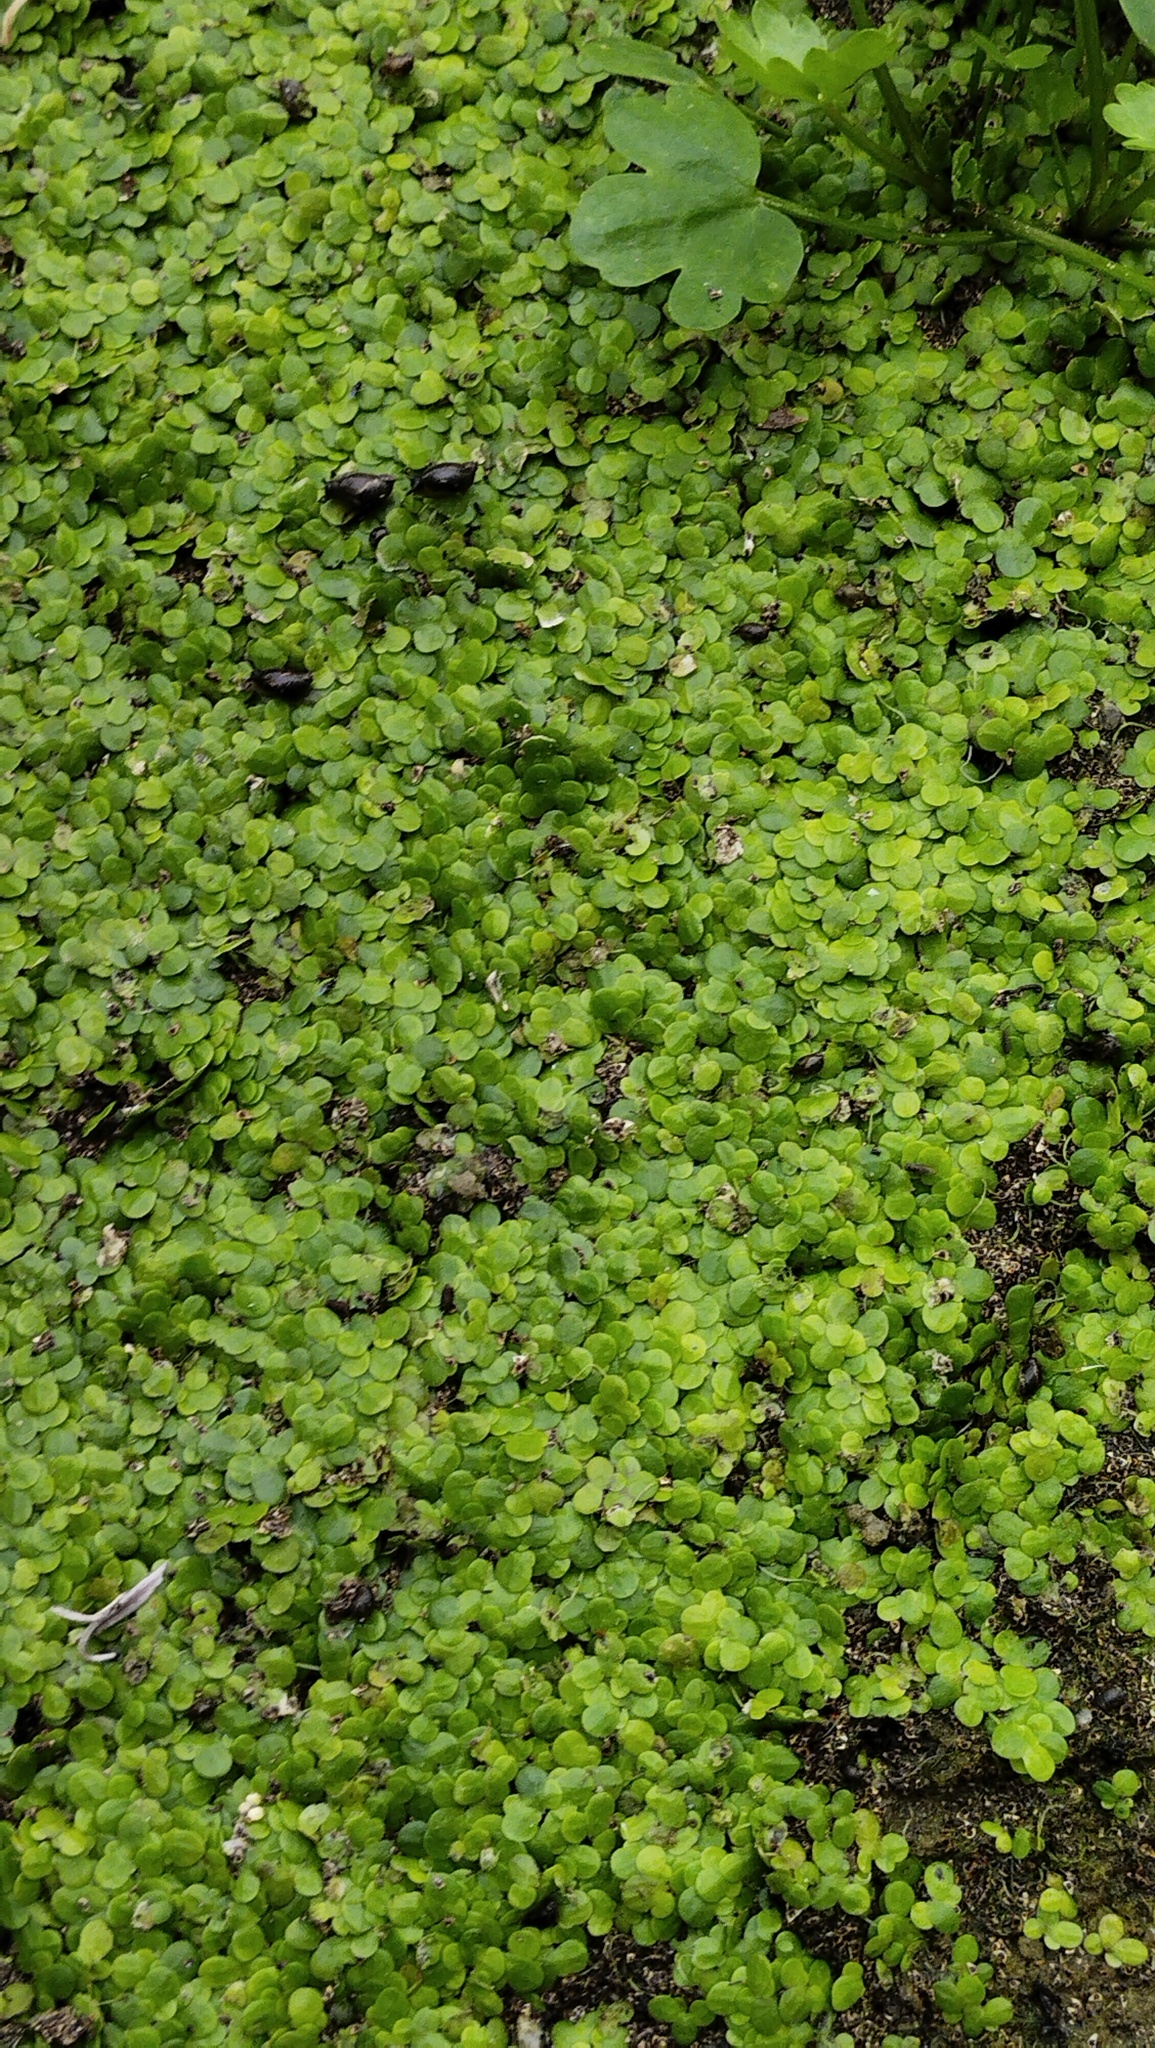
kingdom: Plantae
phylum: Tracheophyta
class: Liliopsida
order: Alismatales
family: Araceae
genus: Lemna
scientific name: Lemna minor
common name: Common duckweed
